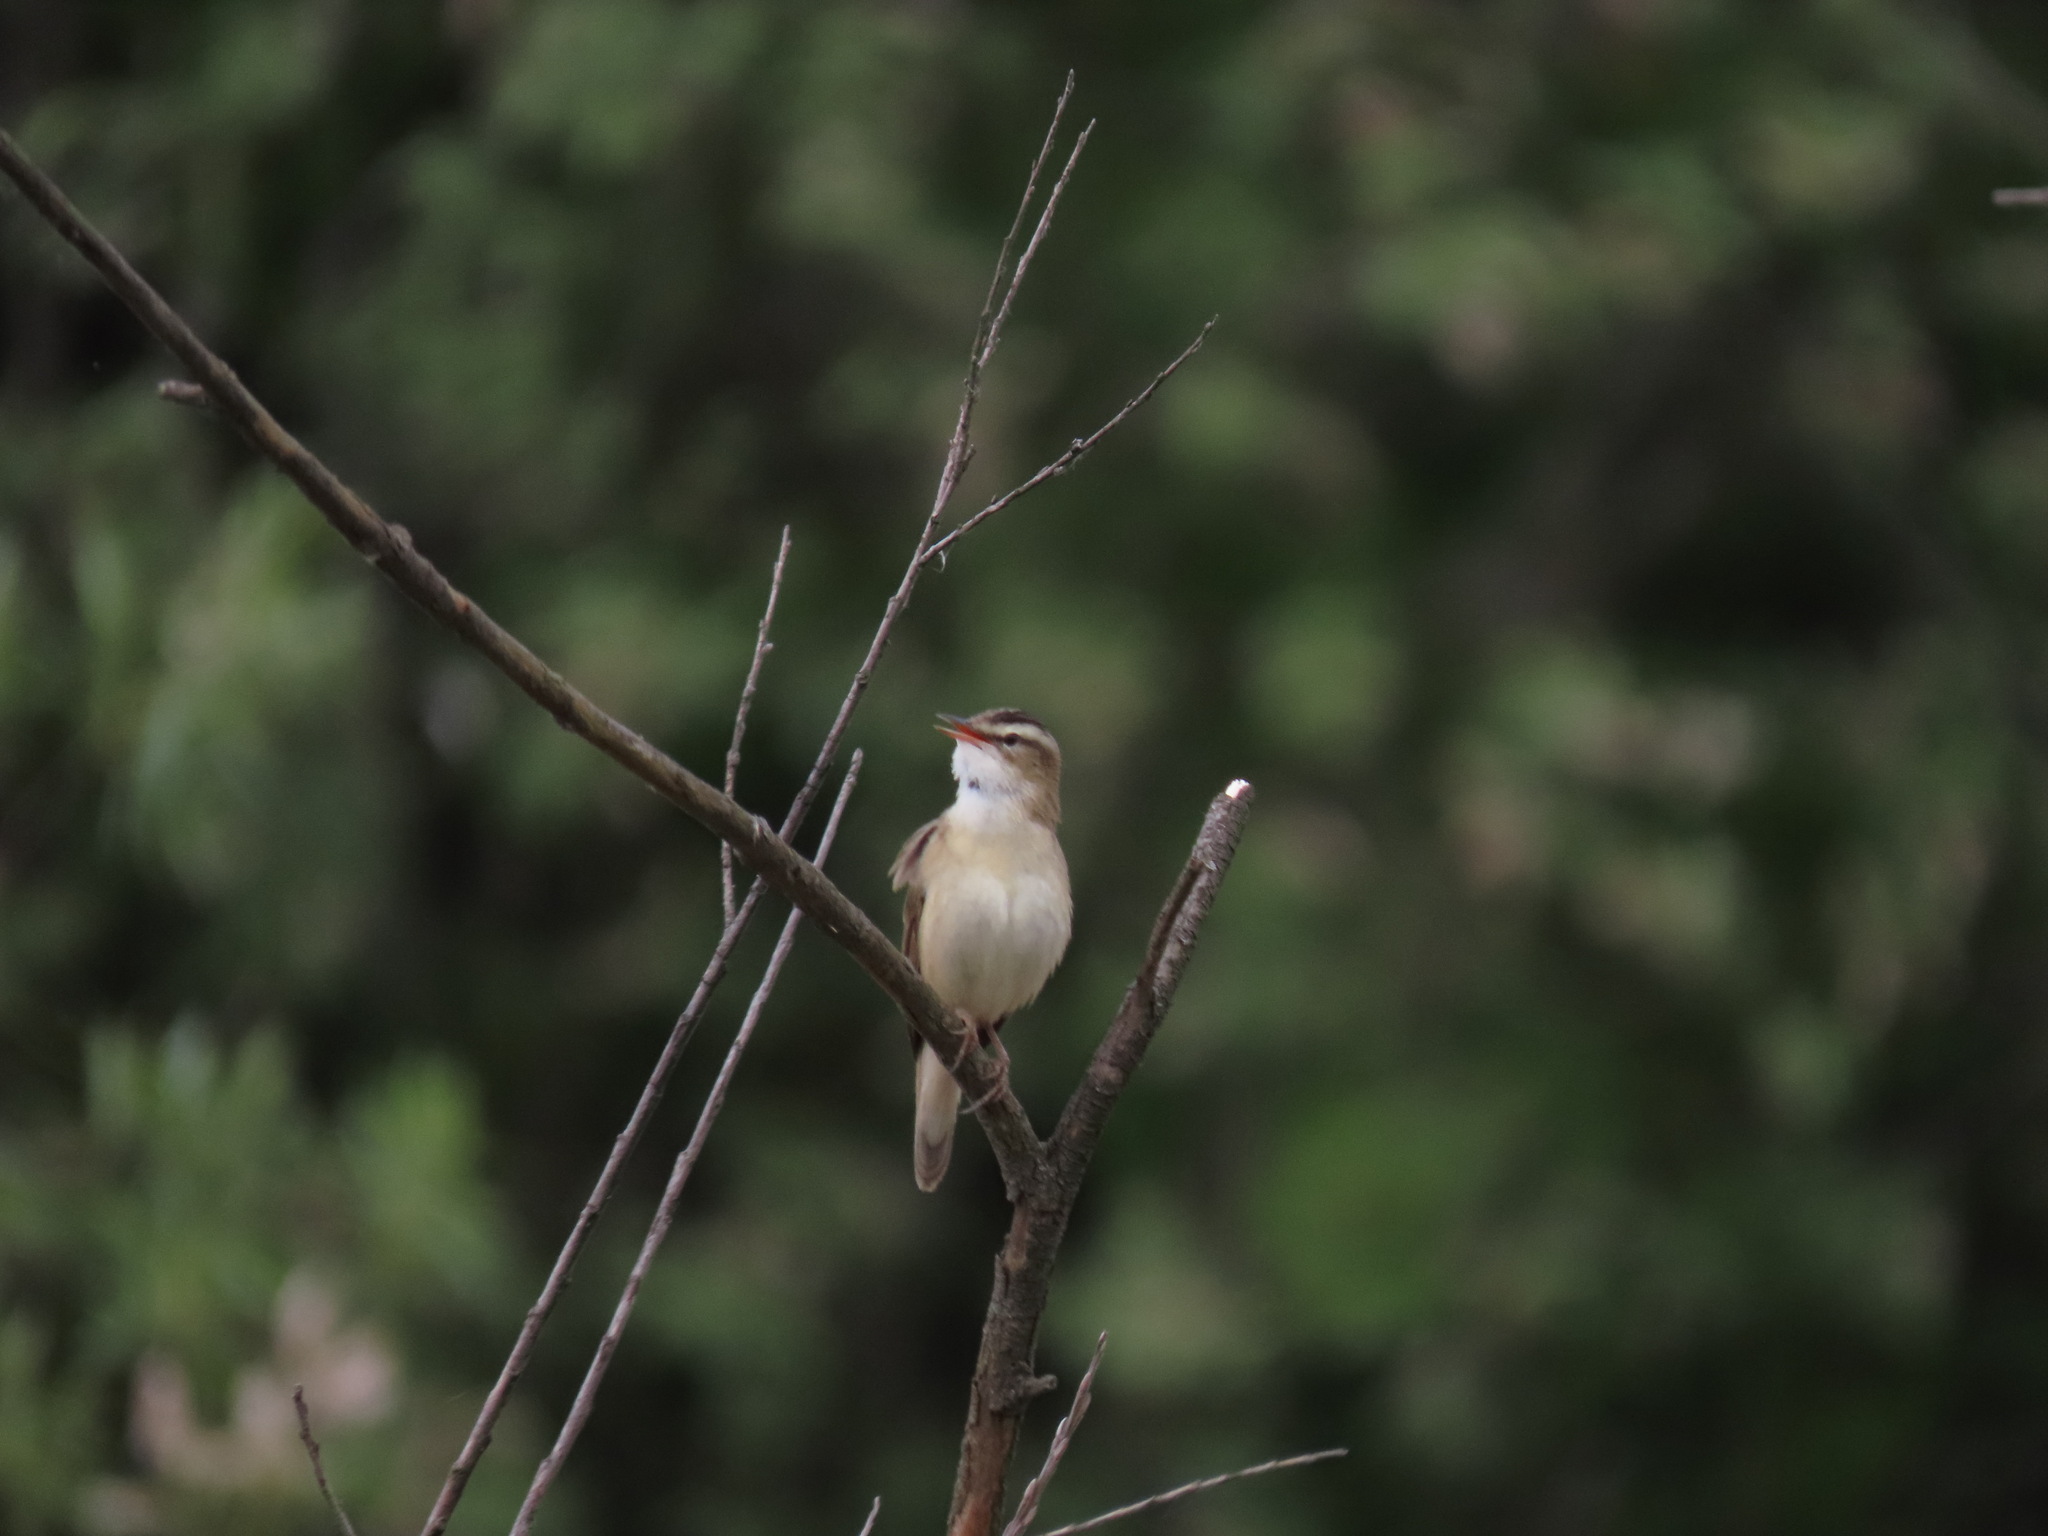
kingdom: Animalia
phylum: Chordata
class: Aves
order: Passeriformes
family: Acrocephalidae
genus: Acrocephalus
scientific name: Acrocephalus schoenobaenus
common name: Sedge warbler
